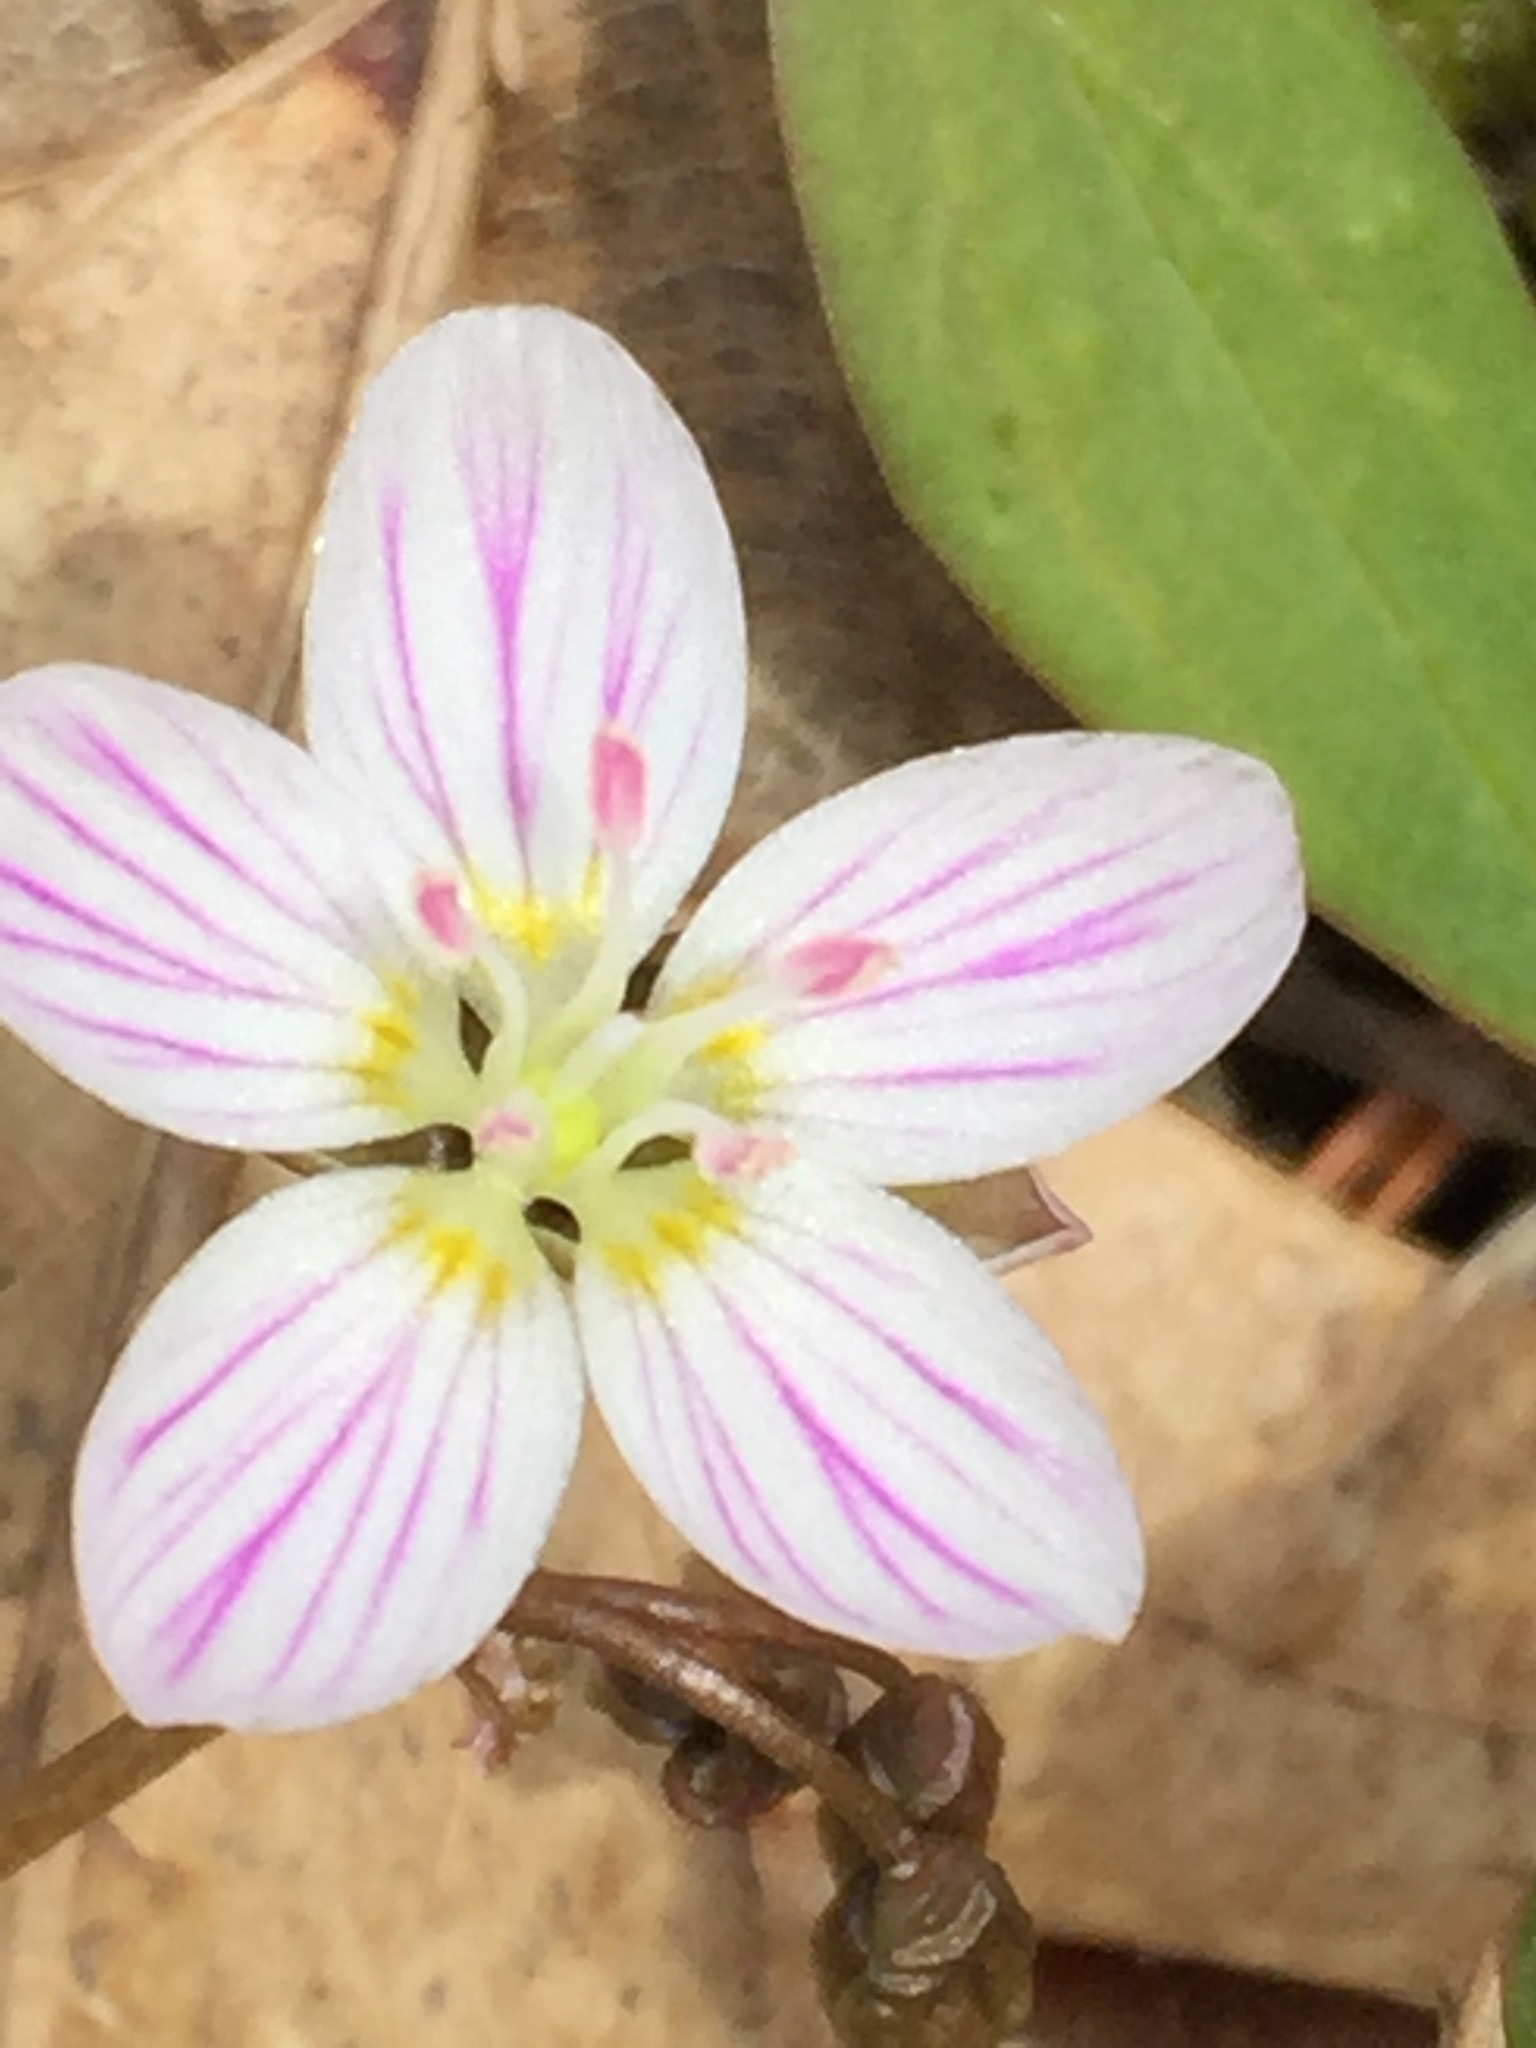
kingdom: Plantae
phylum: Tracheophyta
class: Magnoliopsida
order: Caryophyllales
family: Montiaceae
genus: Claytonia
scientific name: Claytonia caroliniana
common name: Carolina spring beauty
